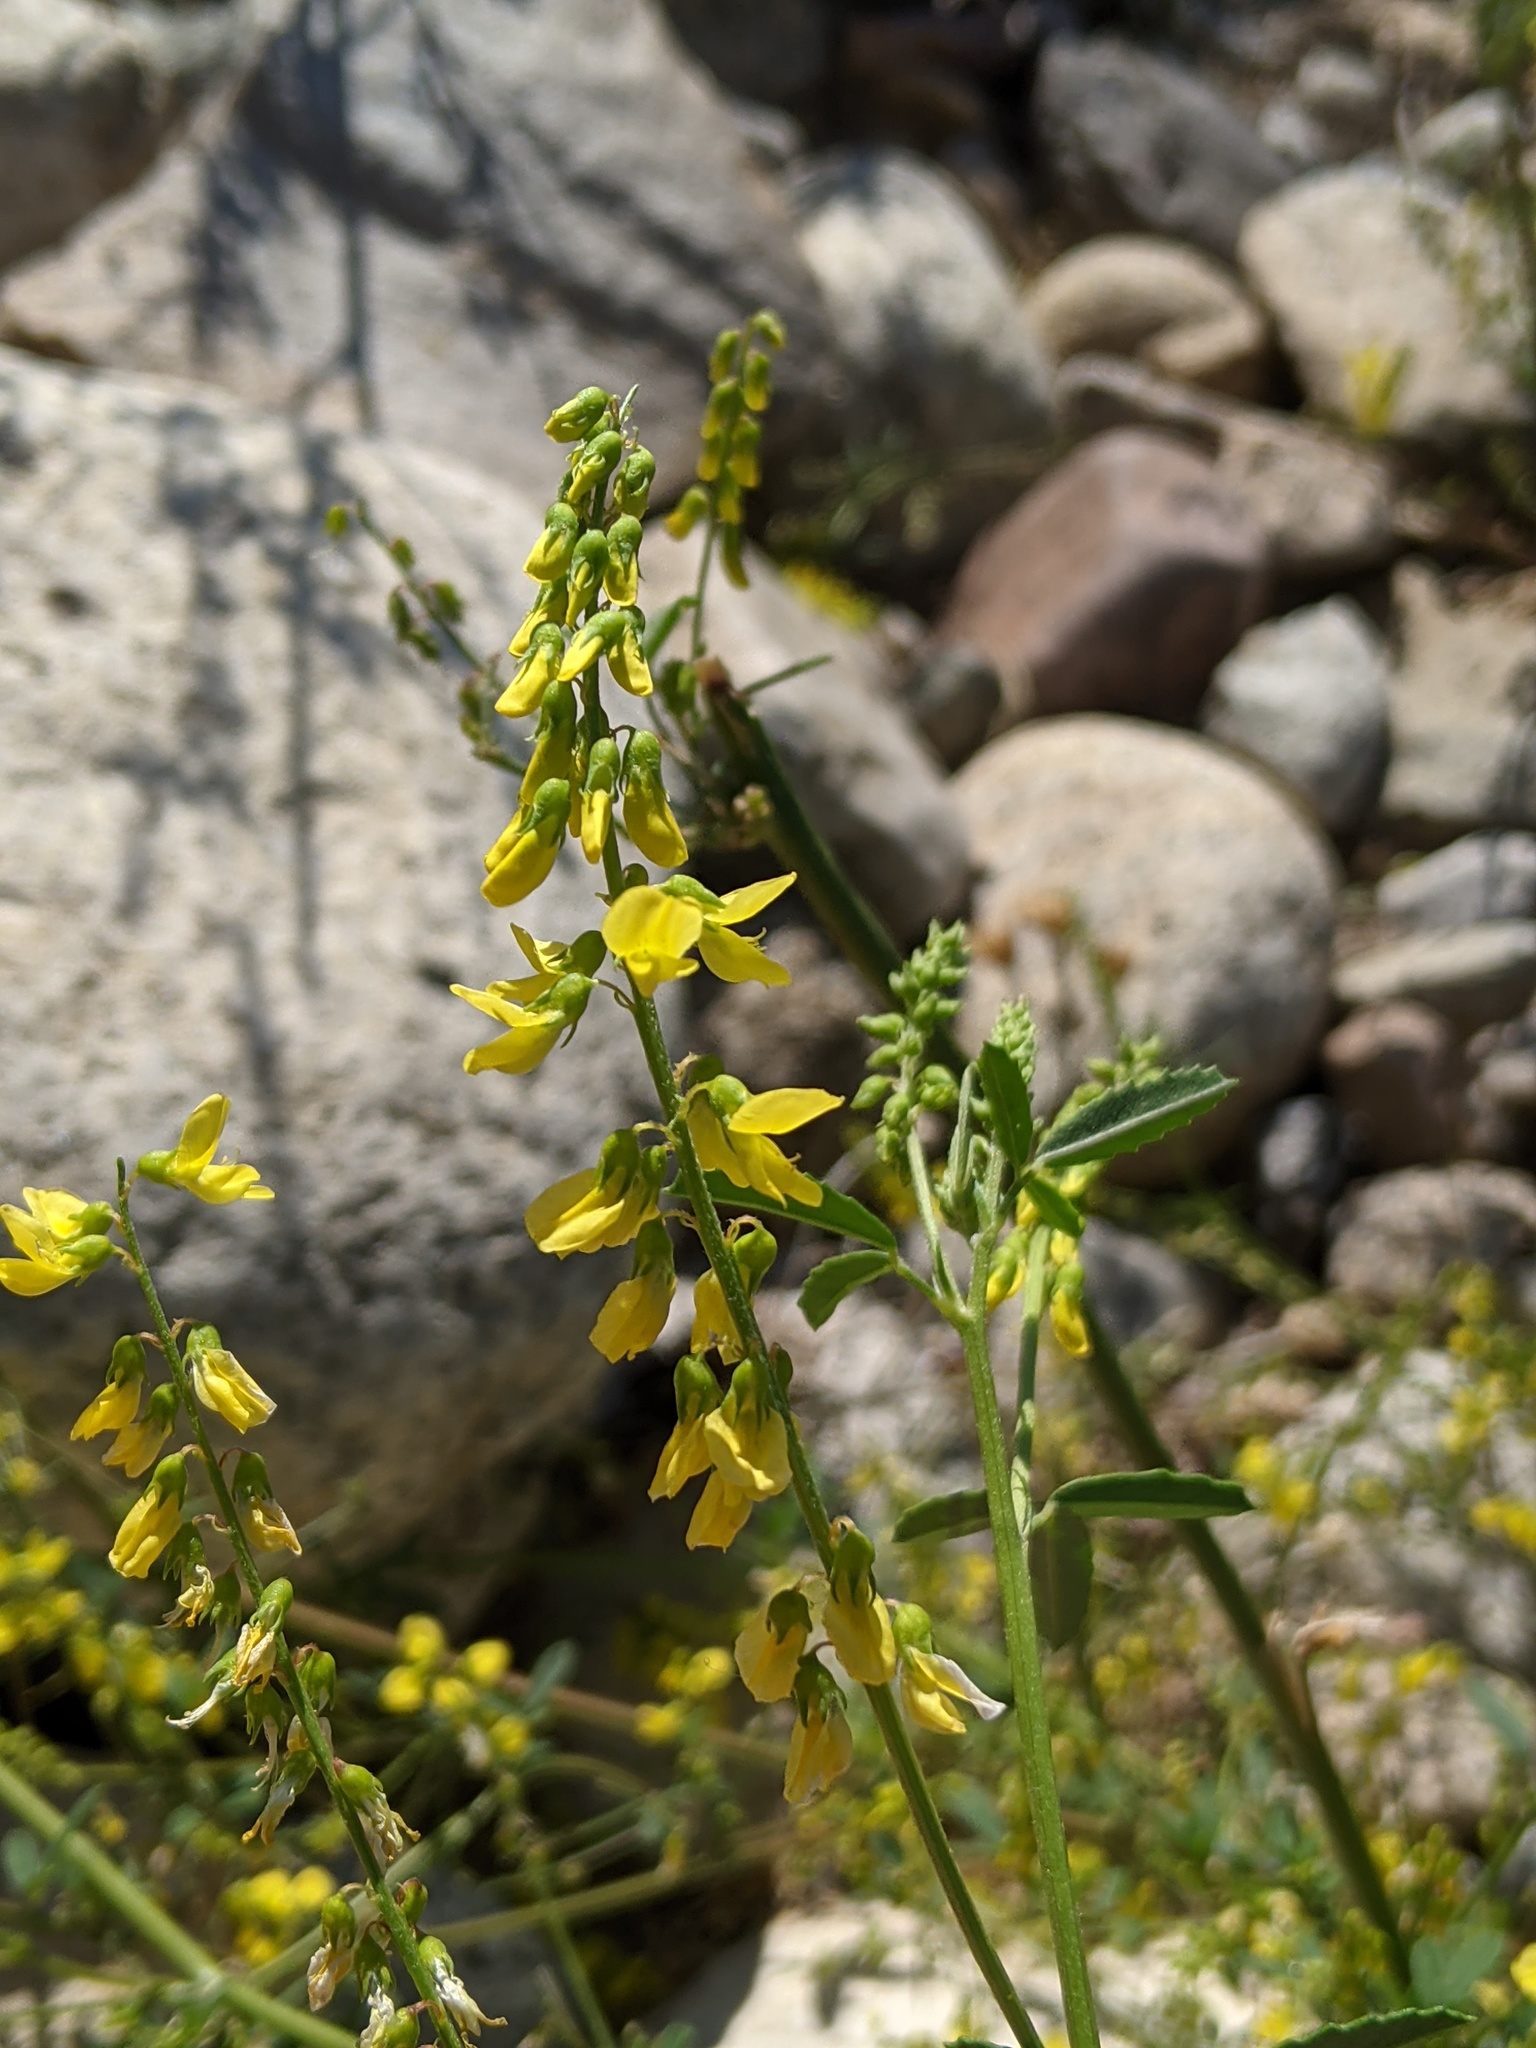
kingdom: Plantae
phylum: Tracheophyta
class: Magnoliopsida
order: Fabales
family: Fabaceae
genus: Melilotus
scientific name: Melilotus officinalis
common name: Sweetclover
